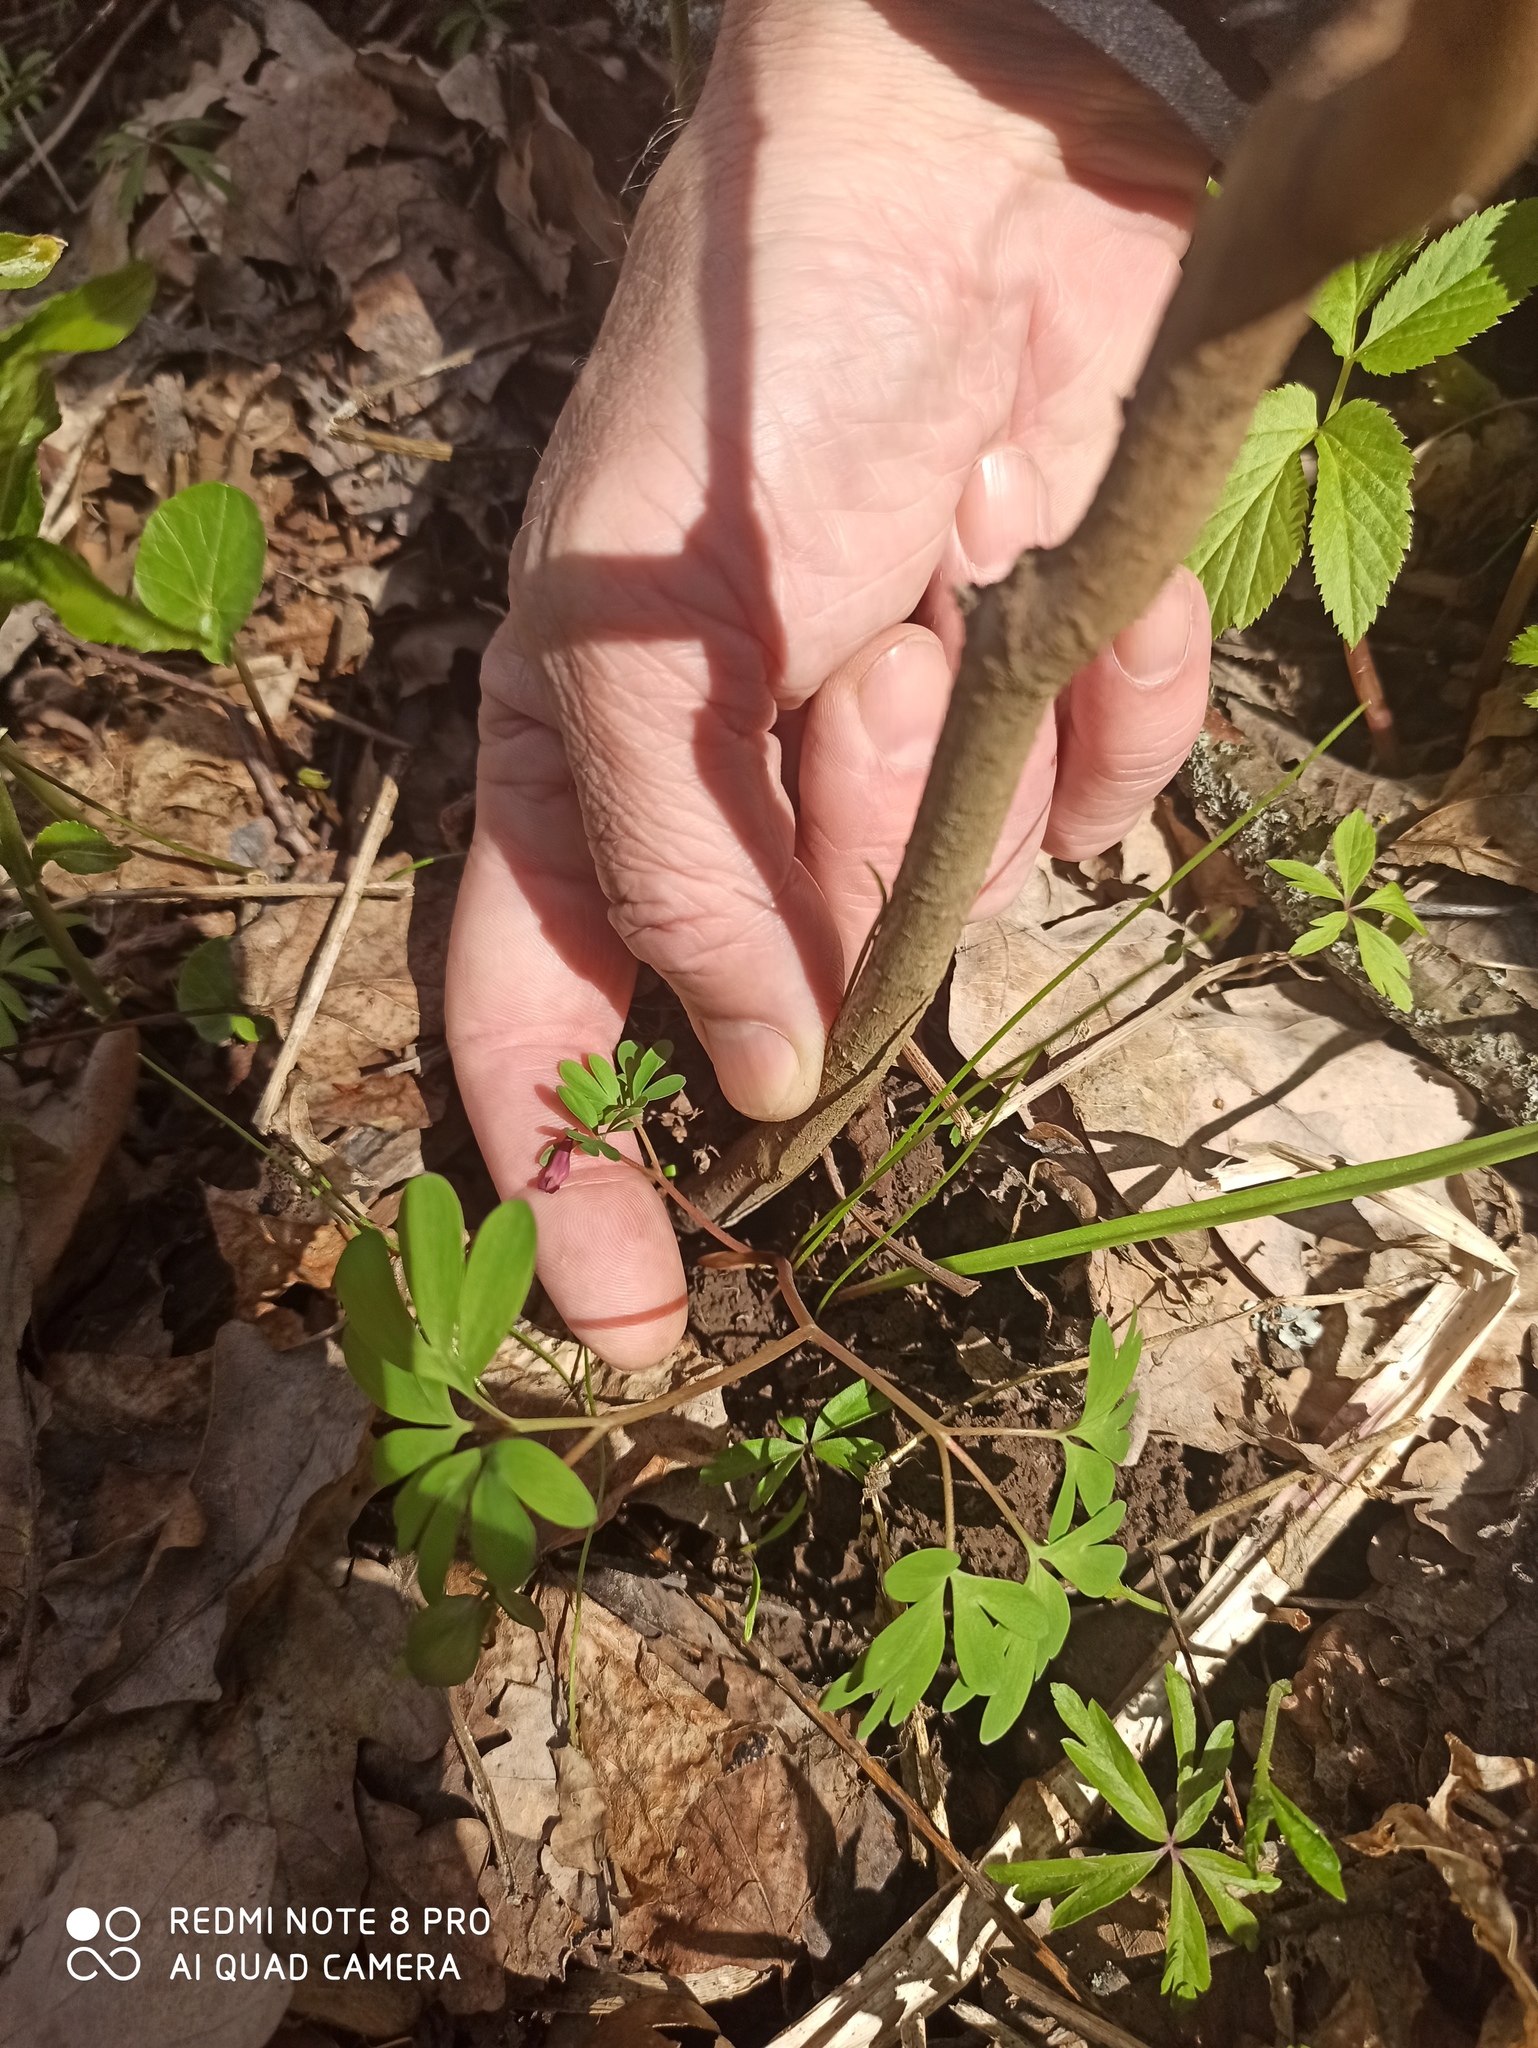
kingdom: Plantae
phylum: Tracheophyta
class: Magnoliopsida
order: Ranunculales
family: Papaveraceae
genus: Corydalis
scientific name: Corydalis intermedia
